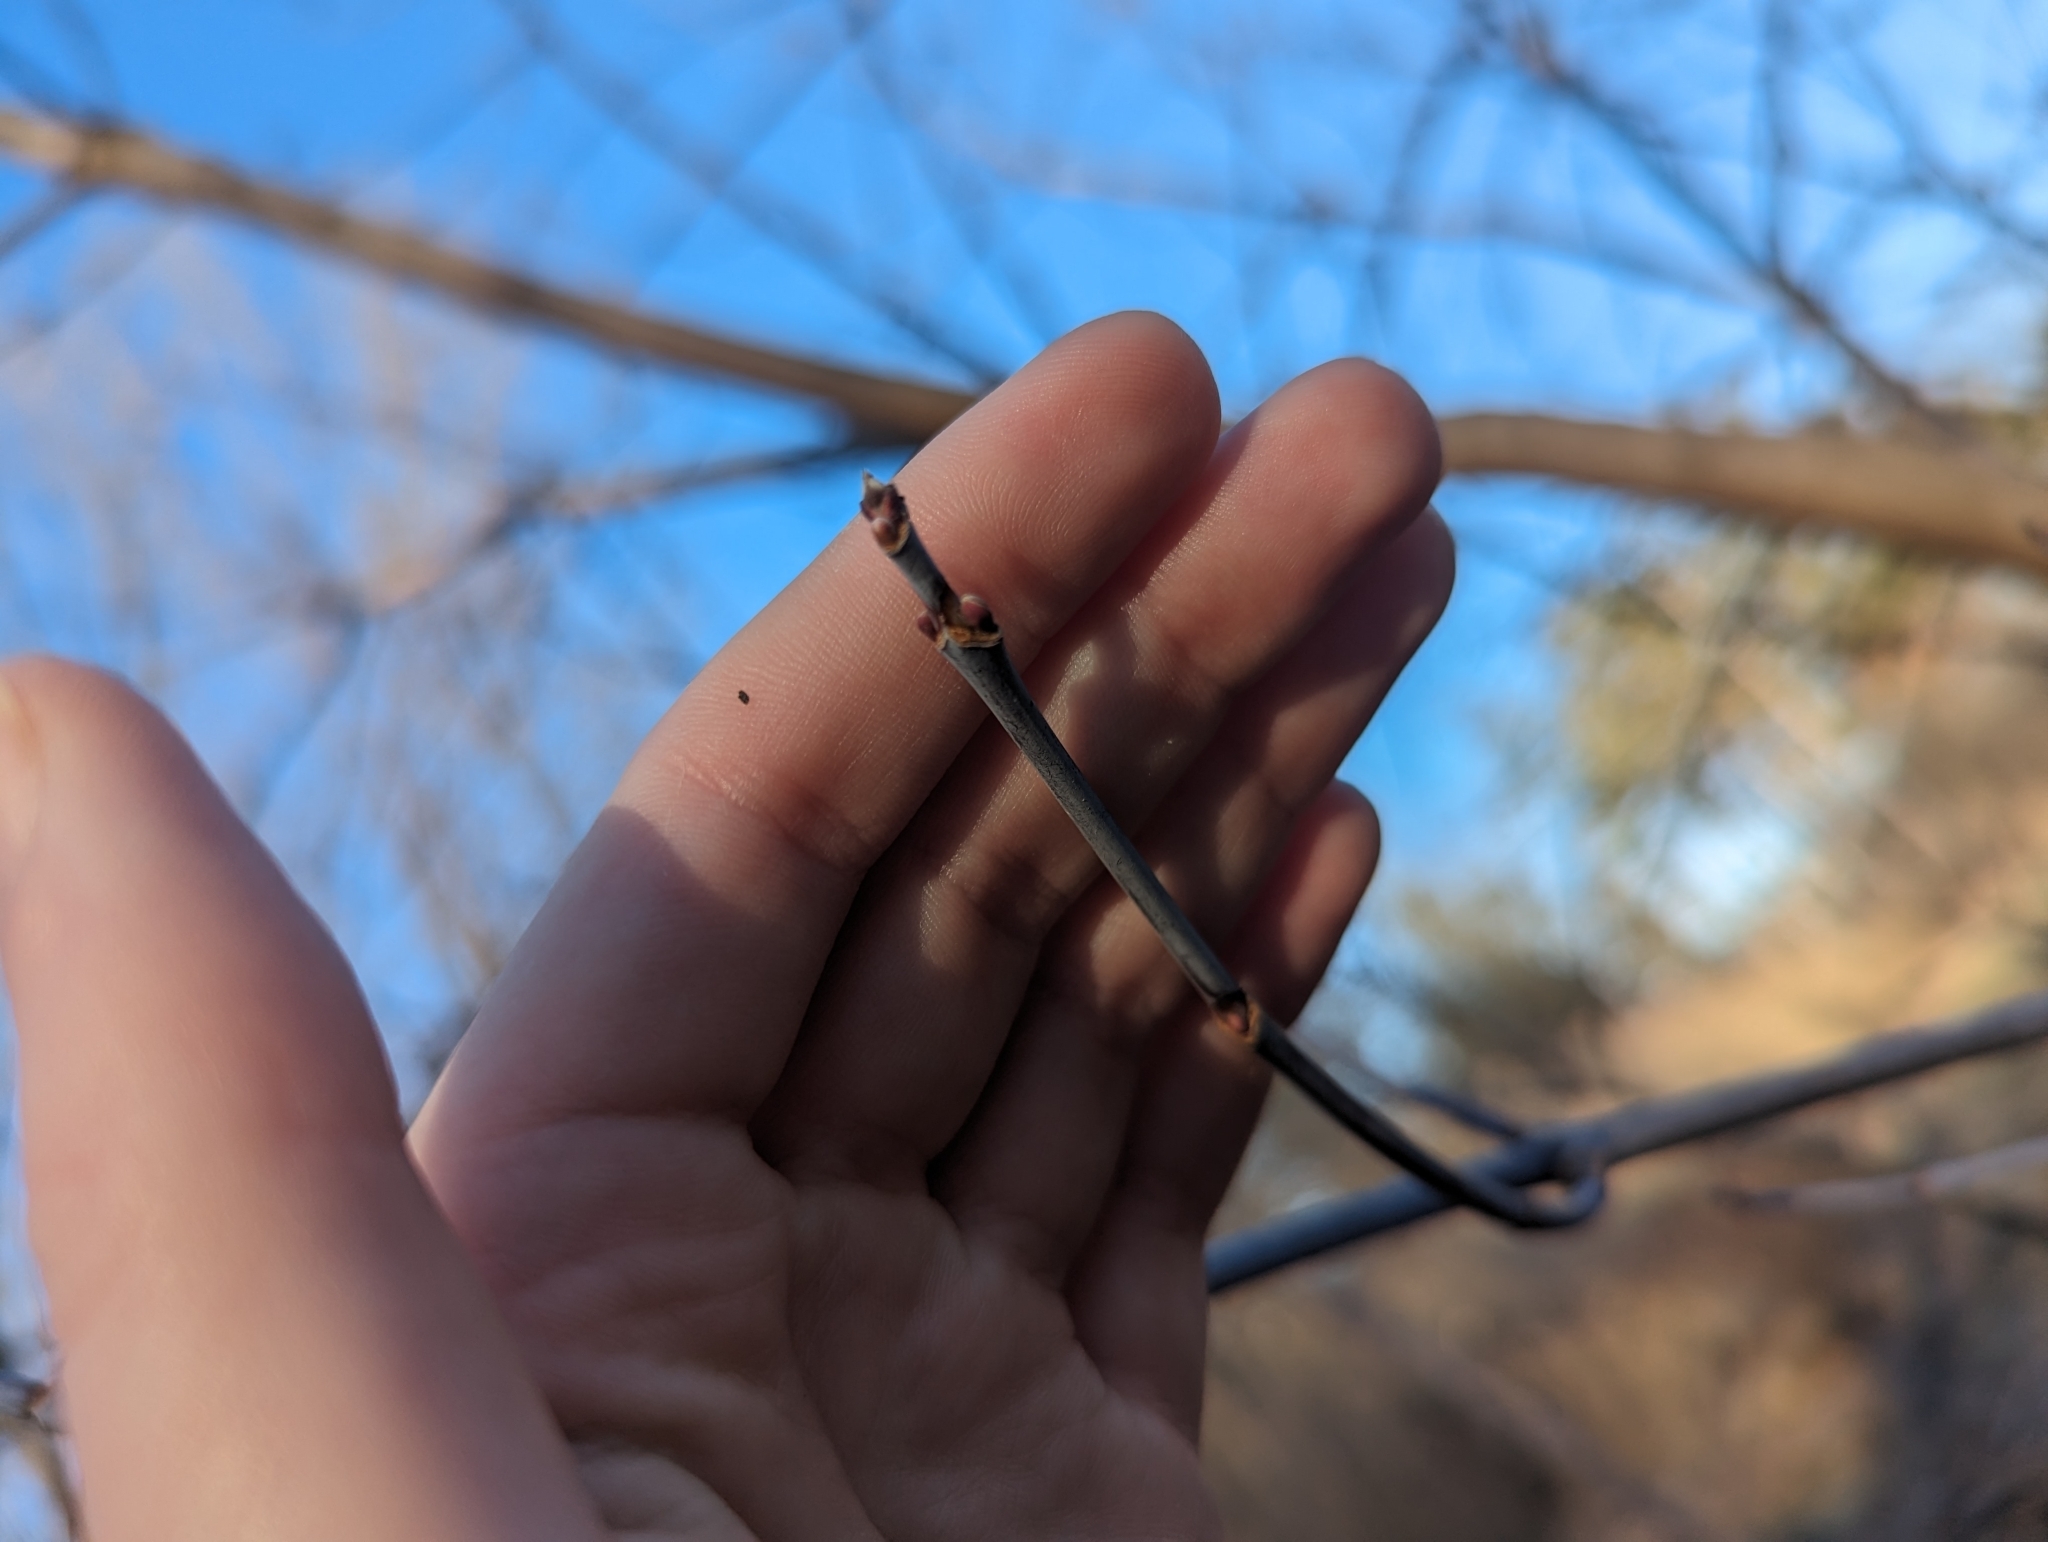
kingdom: Plantae
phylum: Tracheophyta
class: Magnoliopsida
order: Sapindales
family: Sapindaceae
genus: Acer
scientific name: Acer negundo
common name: Ashleaf maple
